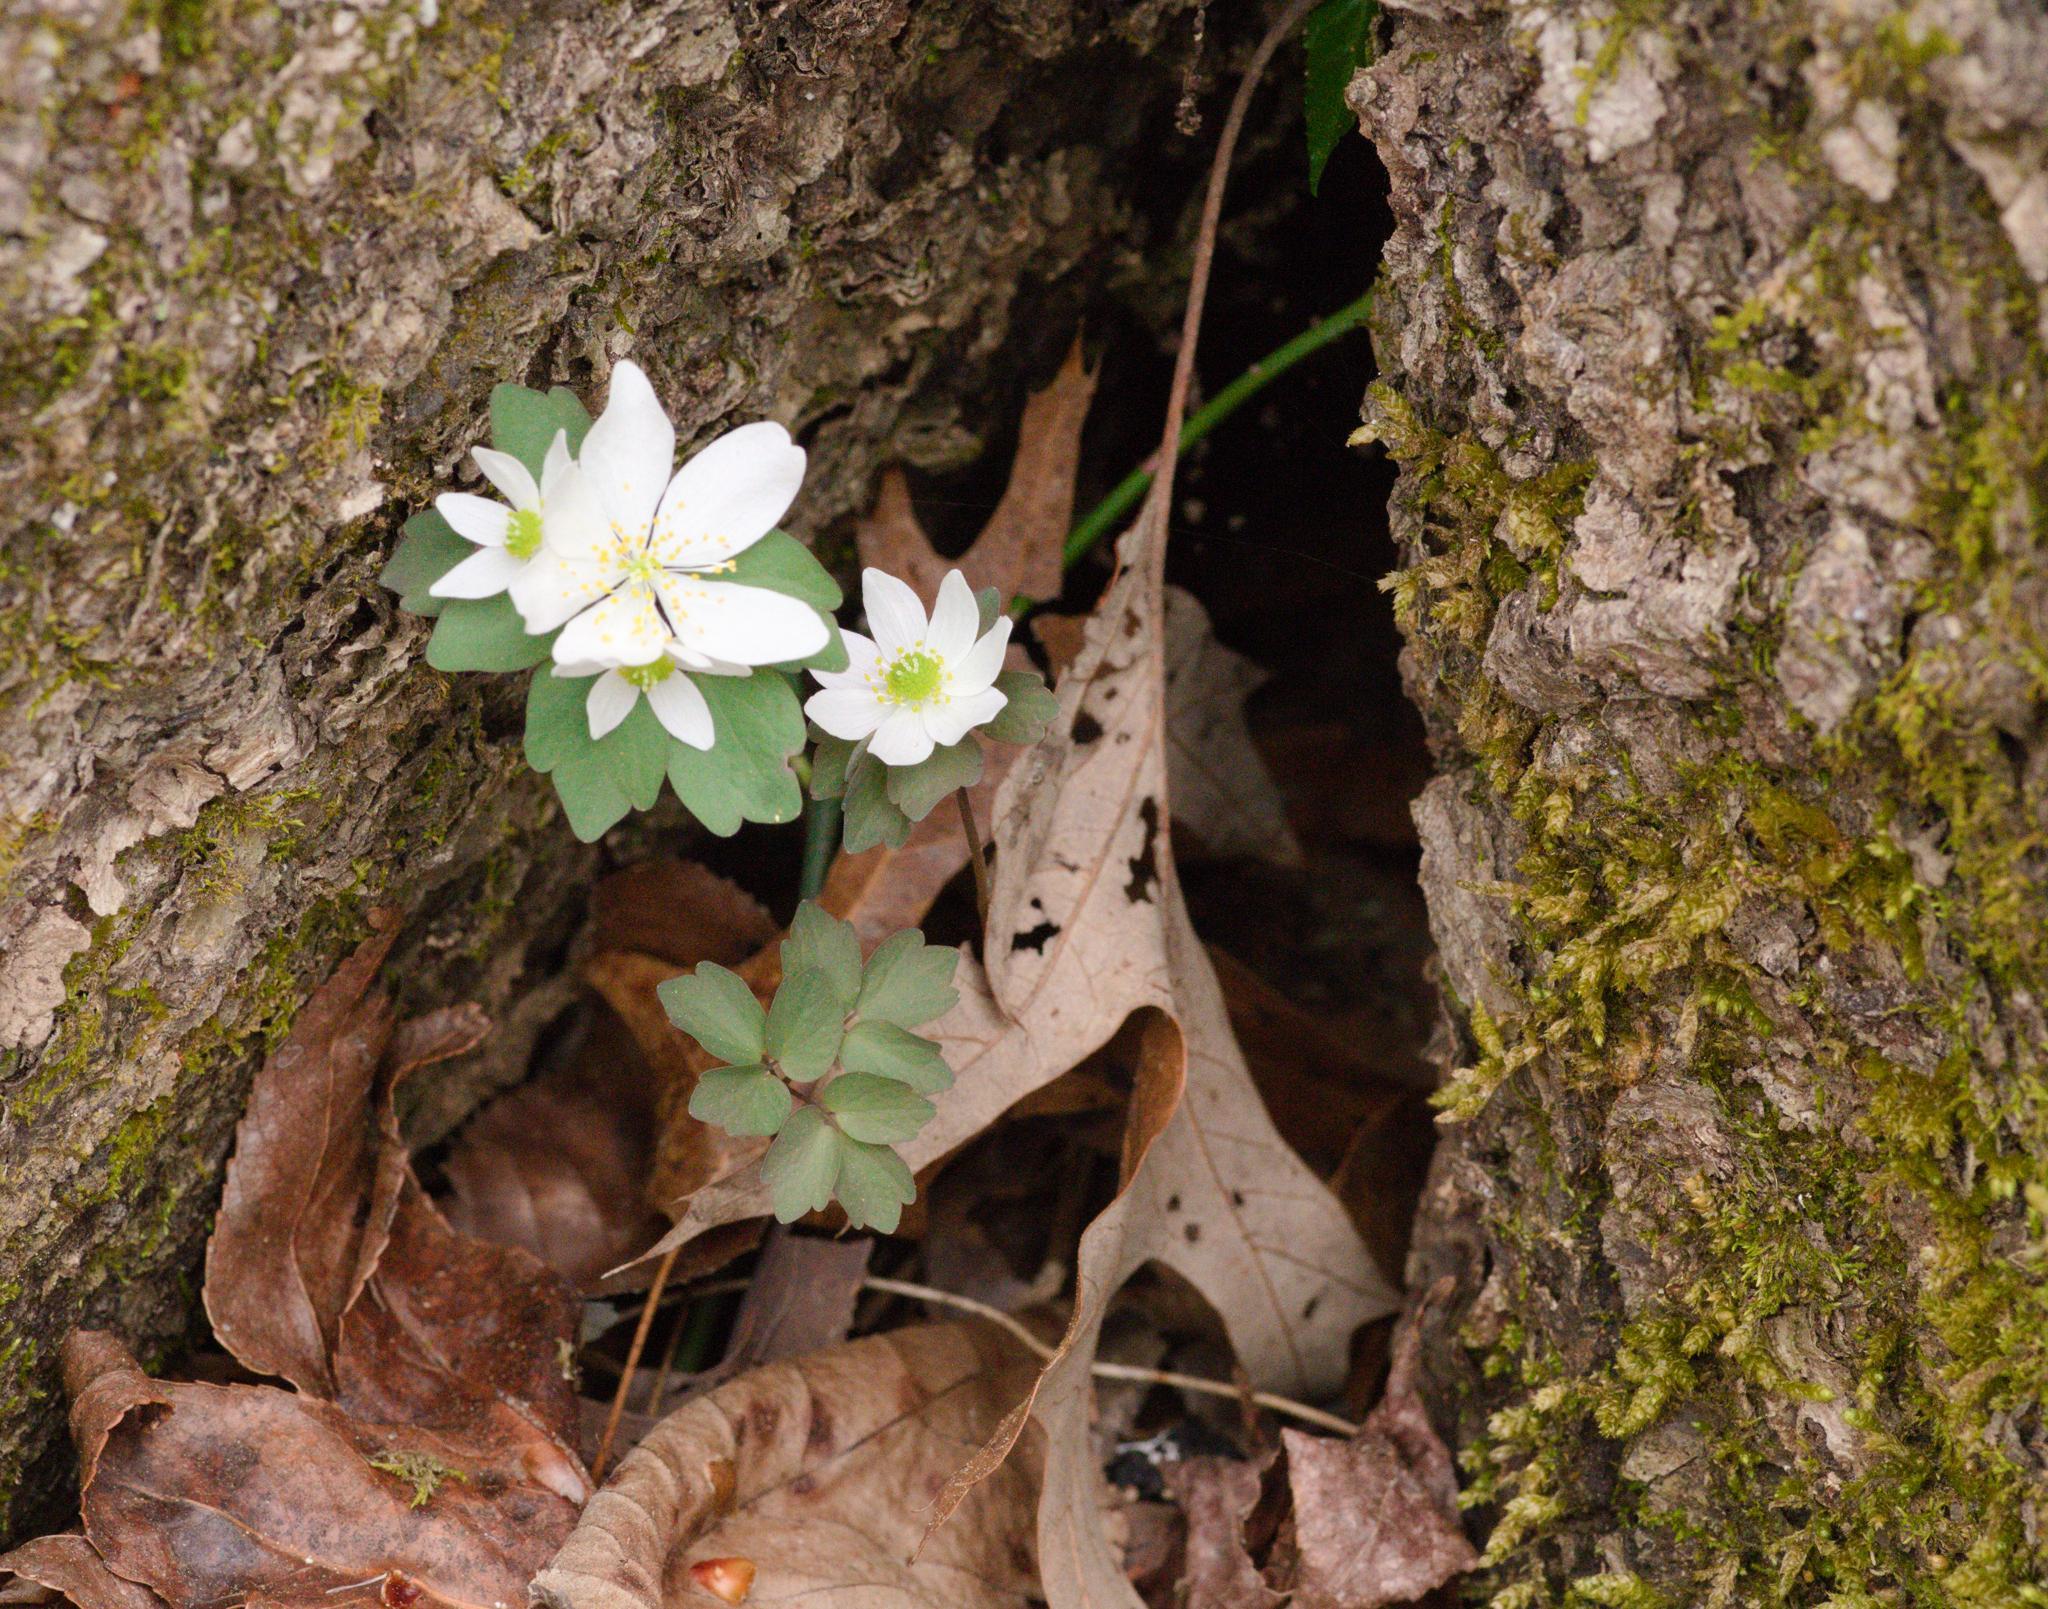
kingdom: Plantae
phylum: Tracheophyta
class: Magnoliopsida
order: Ranunculales
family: Ranunculaceae
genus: Thalictrum
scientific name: Thalictrum thalictroides
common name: Rue-anemone
